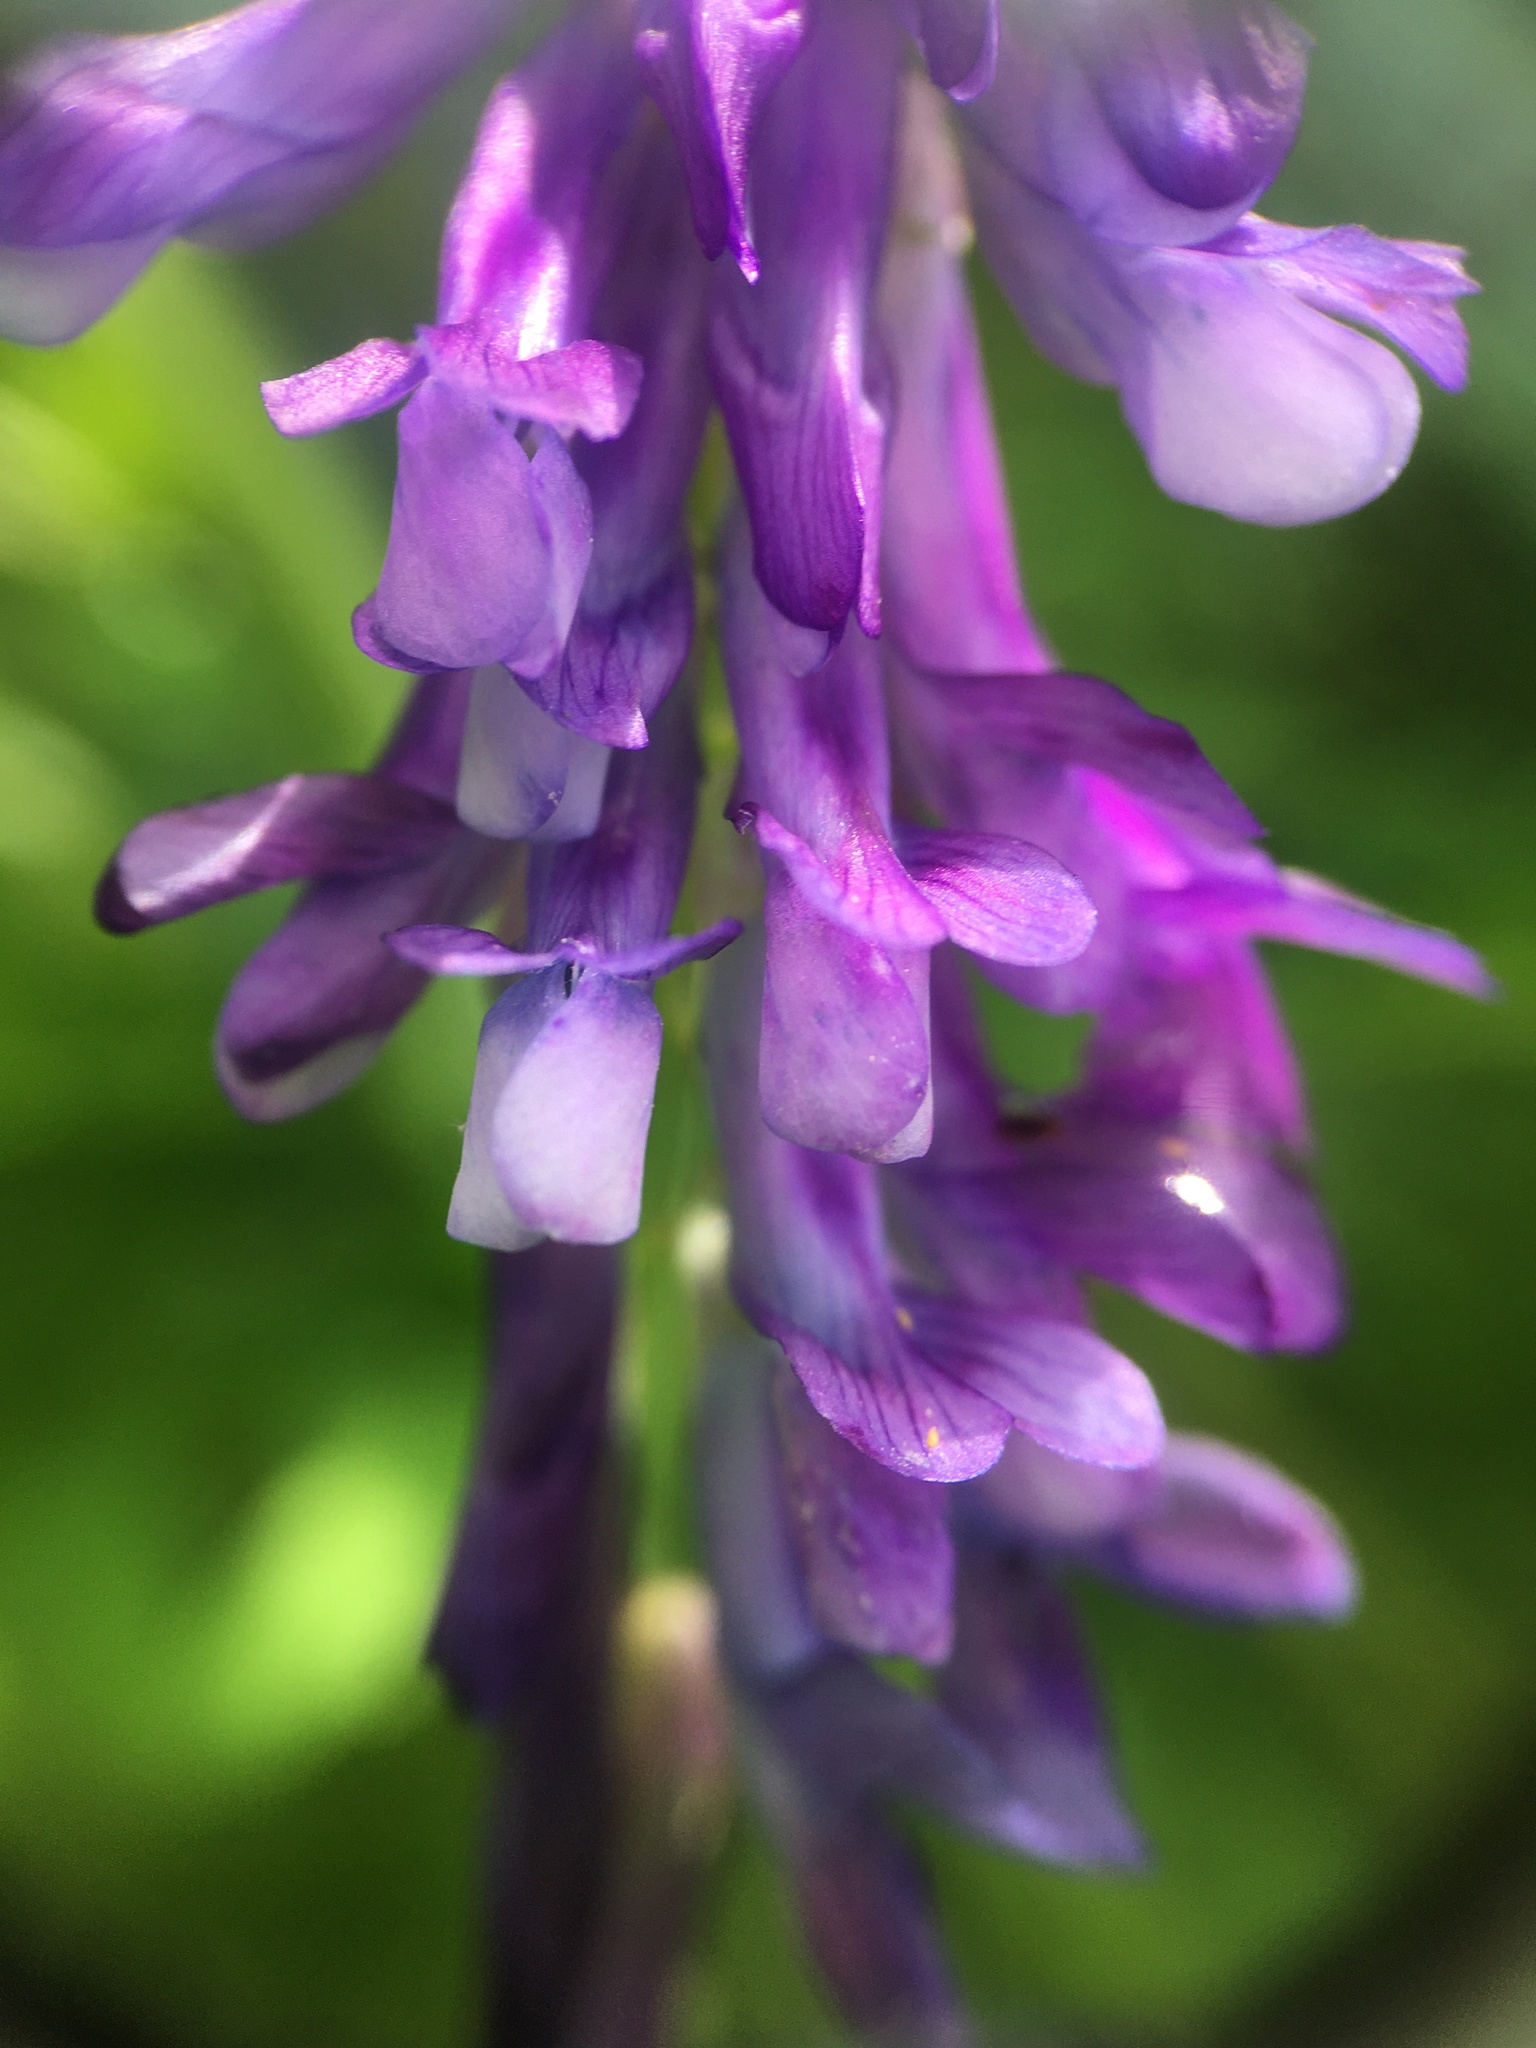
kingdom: Plantae
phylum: Tracheophyta
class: Magnoliopsida
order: Fabales
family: Fabaceae
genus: Vicia
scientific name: Vicia villosa
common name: Fodder vetch
